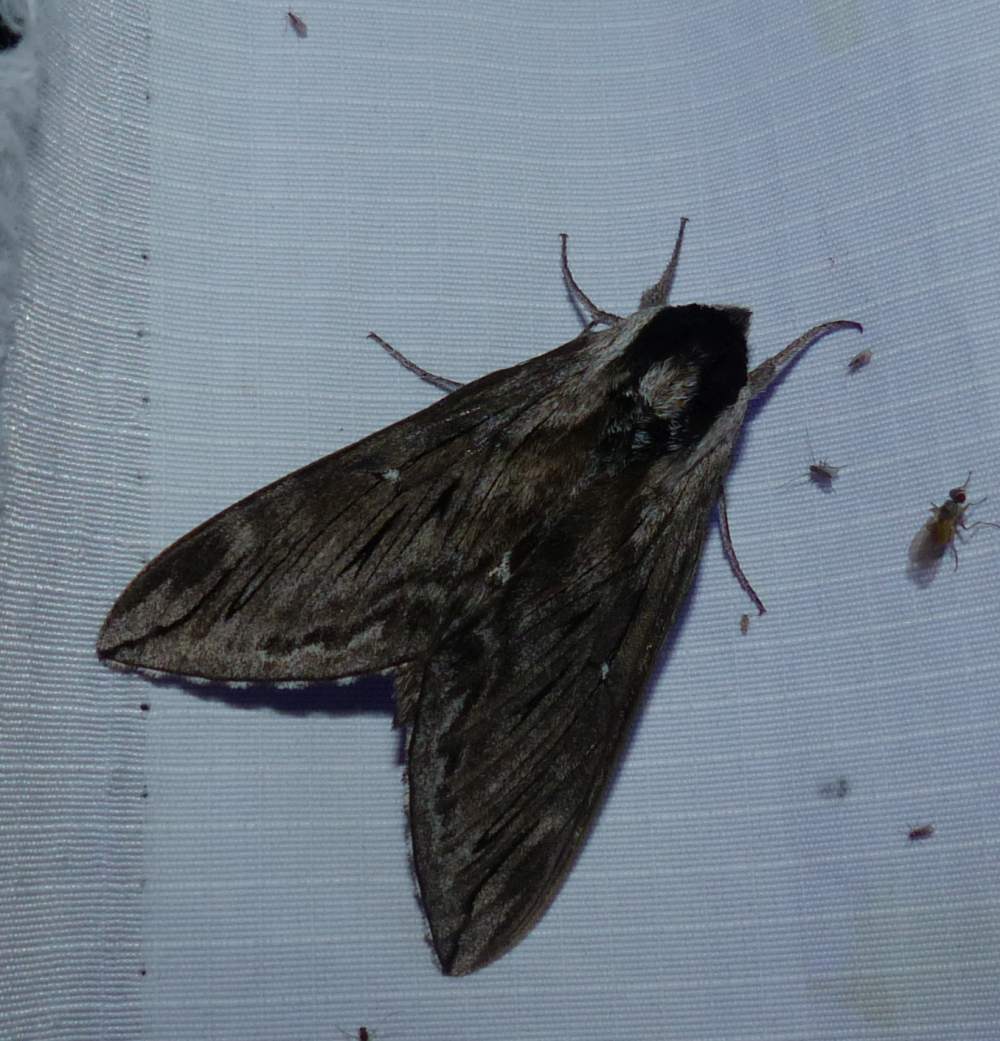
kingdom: Animalia
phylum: Arthropoda
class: Insecta
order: Lepidoptera
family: Sphingidae
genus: Sphinx
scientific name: Sphinx poecila
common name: Northern apple sphinx
